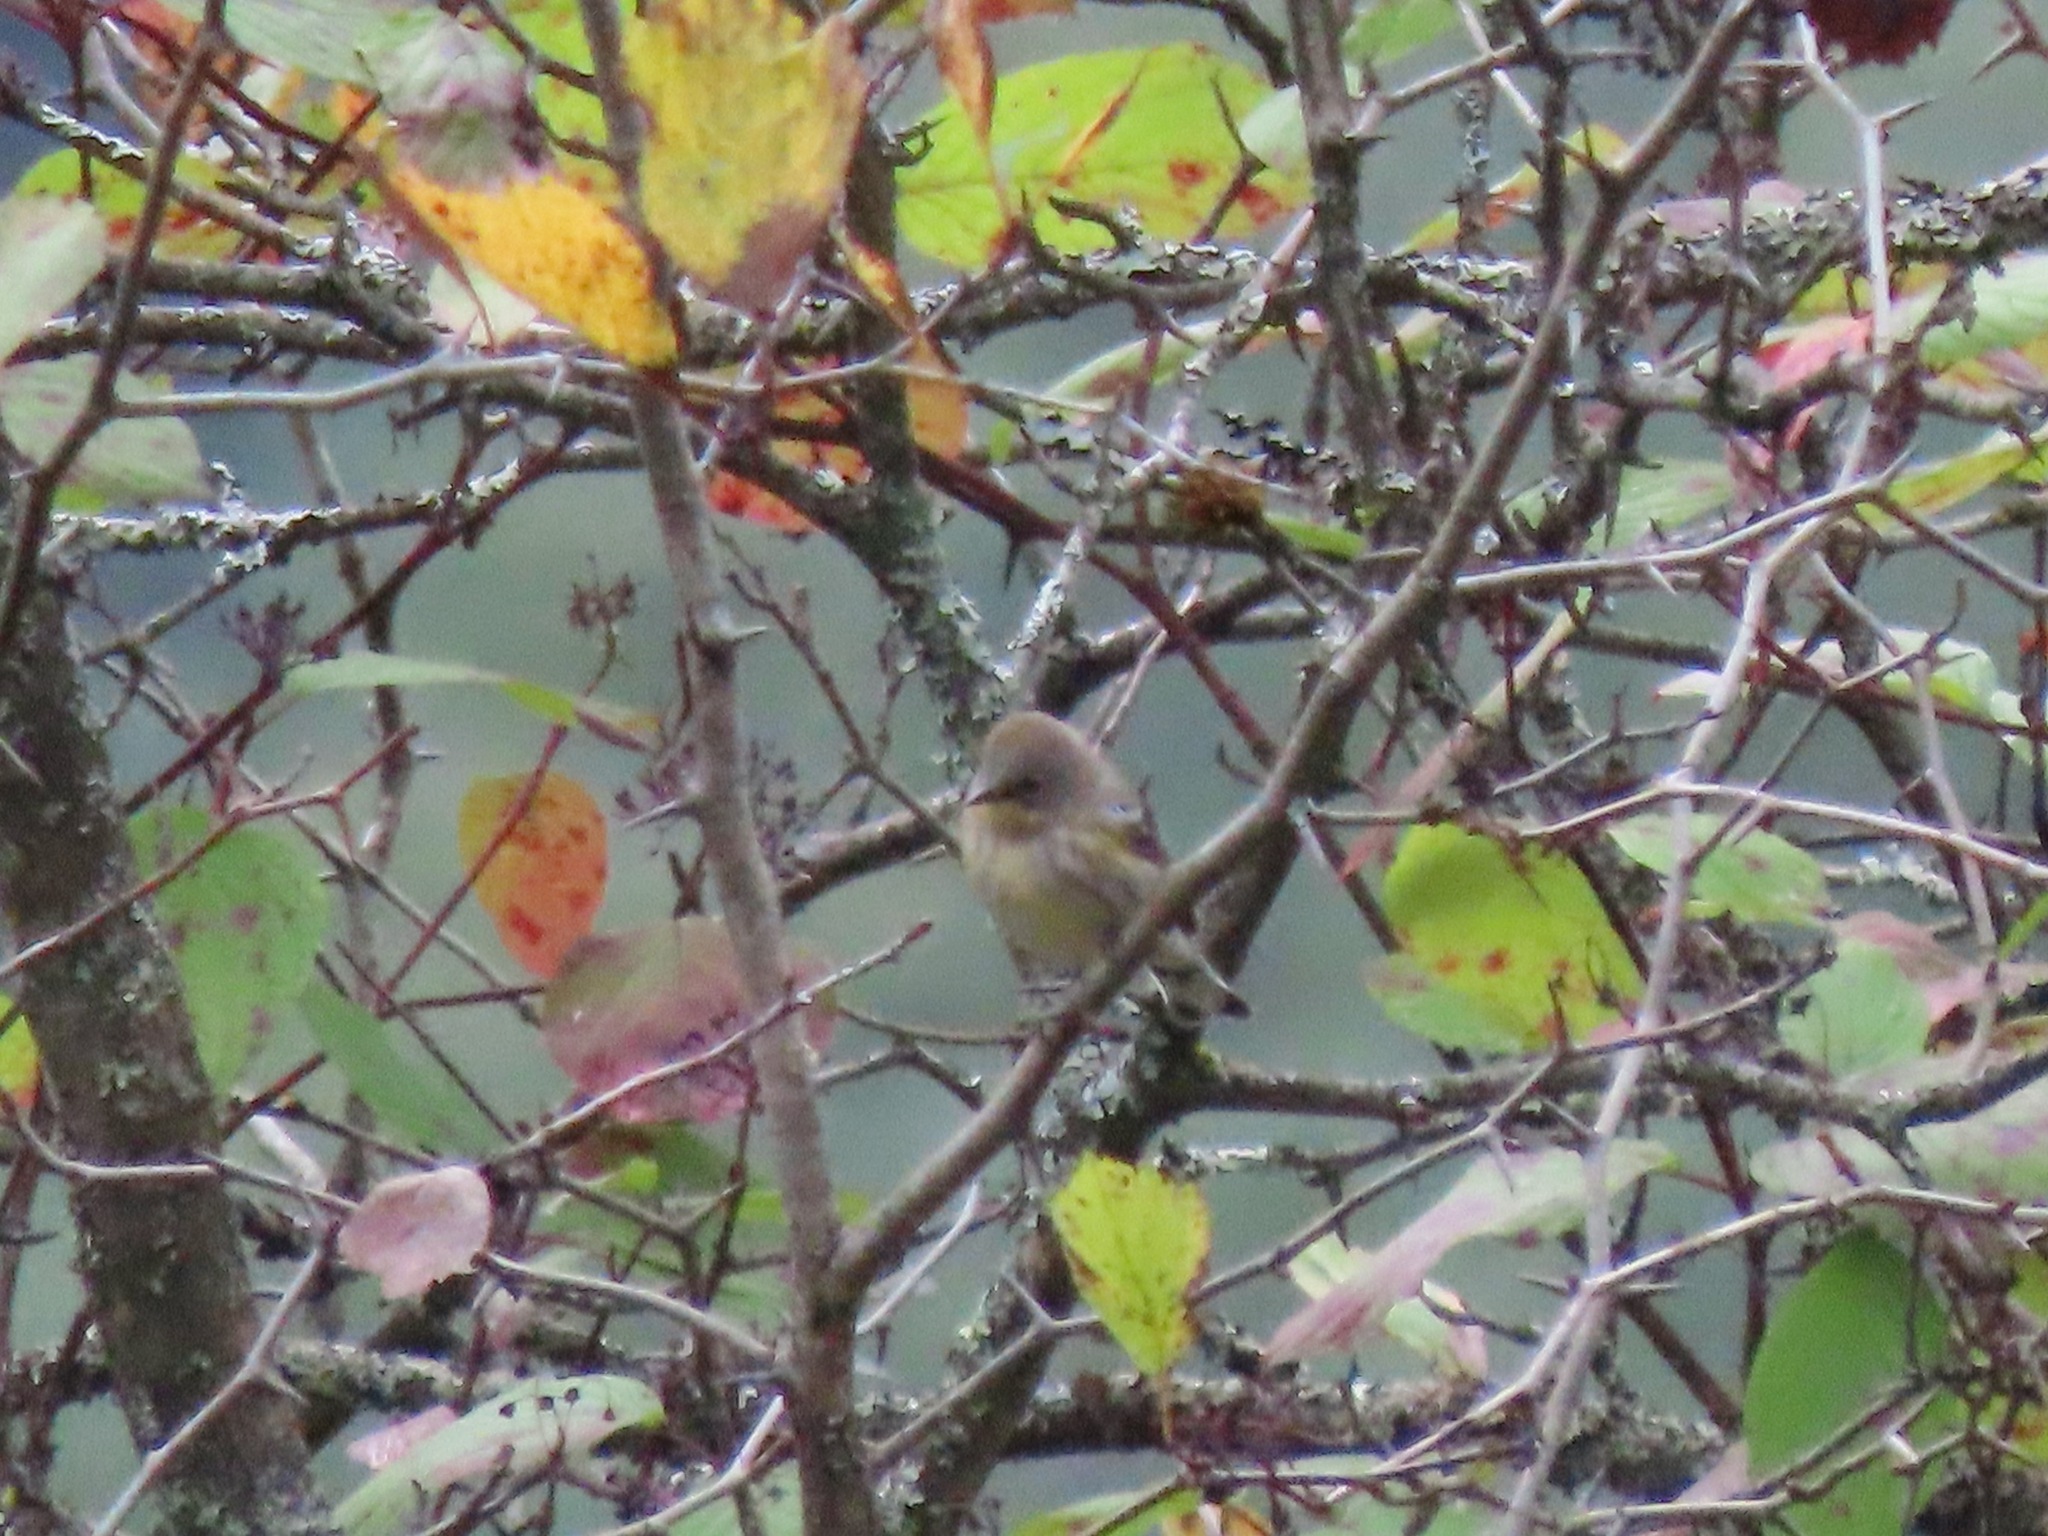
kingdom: Animalia
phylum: Chordata
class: Aves
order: Passeriformes
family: Parulidae
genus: Setophaga
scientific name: Setophaga coronata
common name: Myrtle warbler
